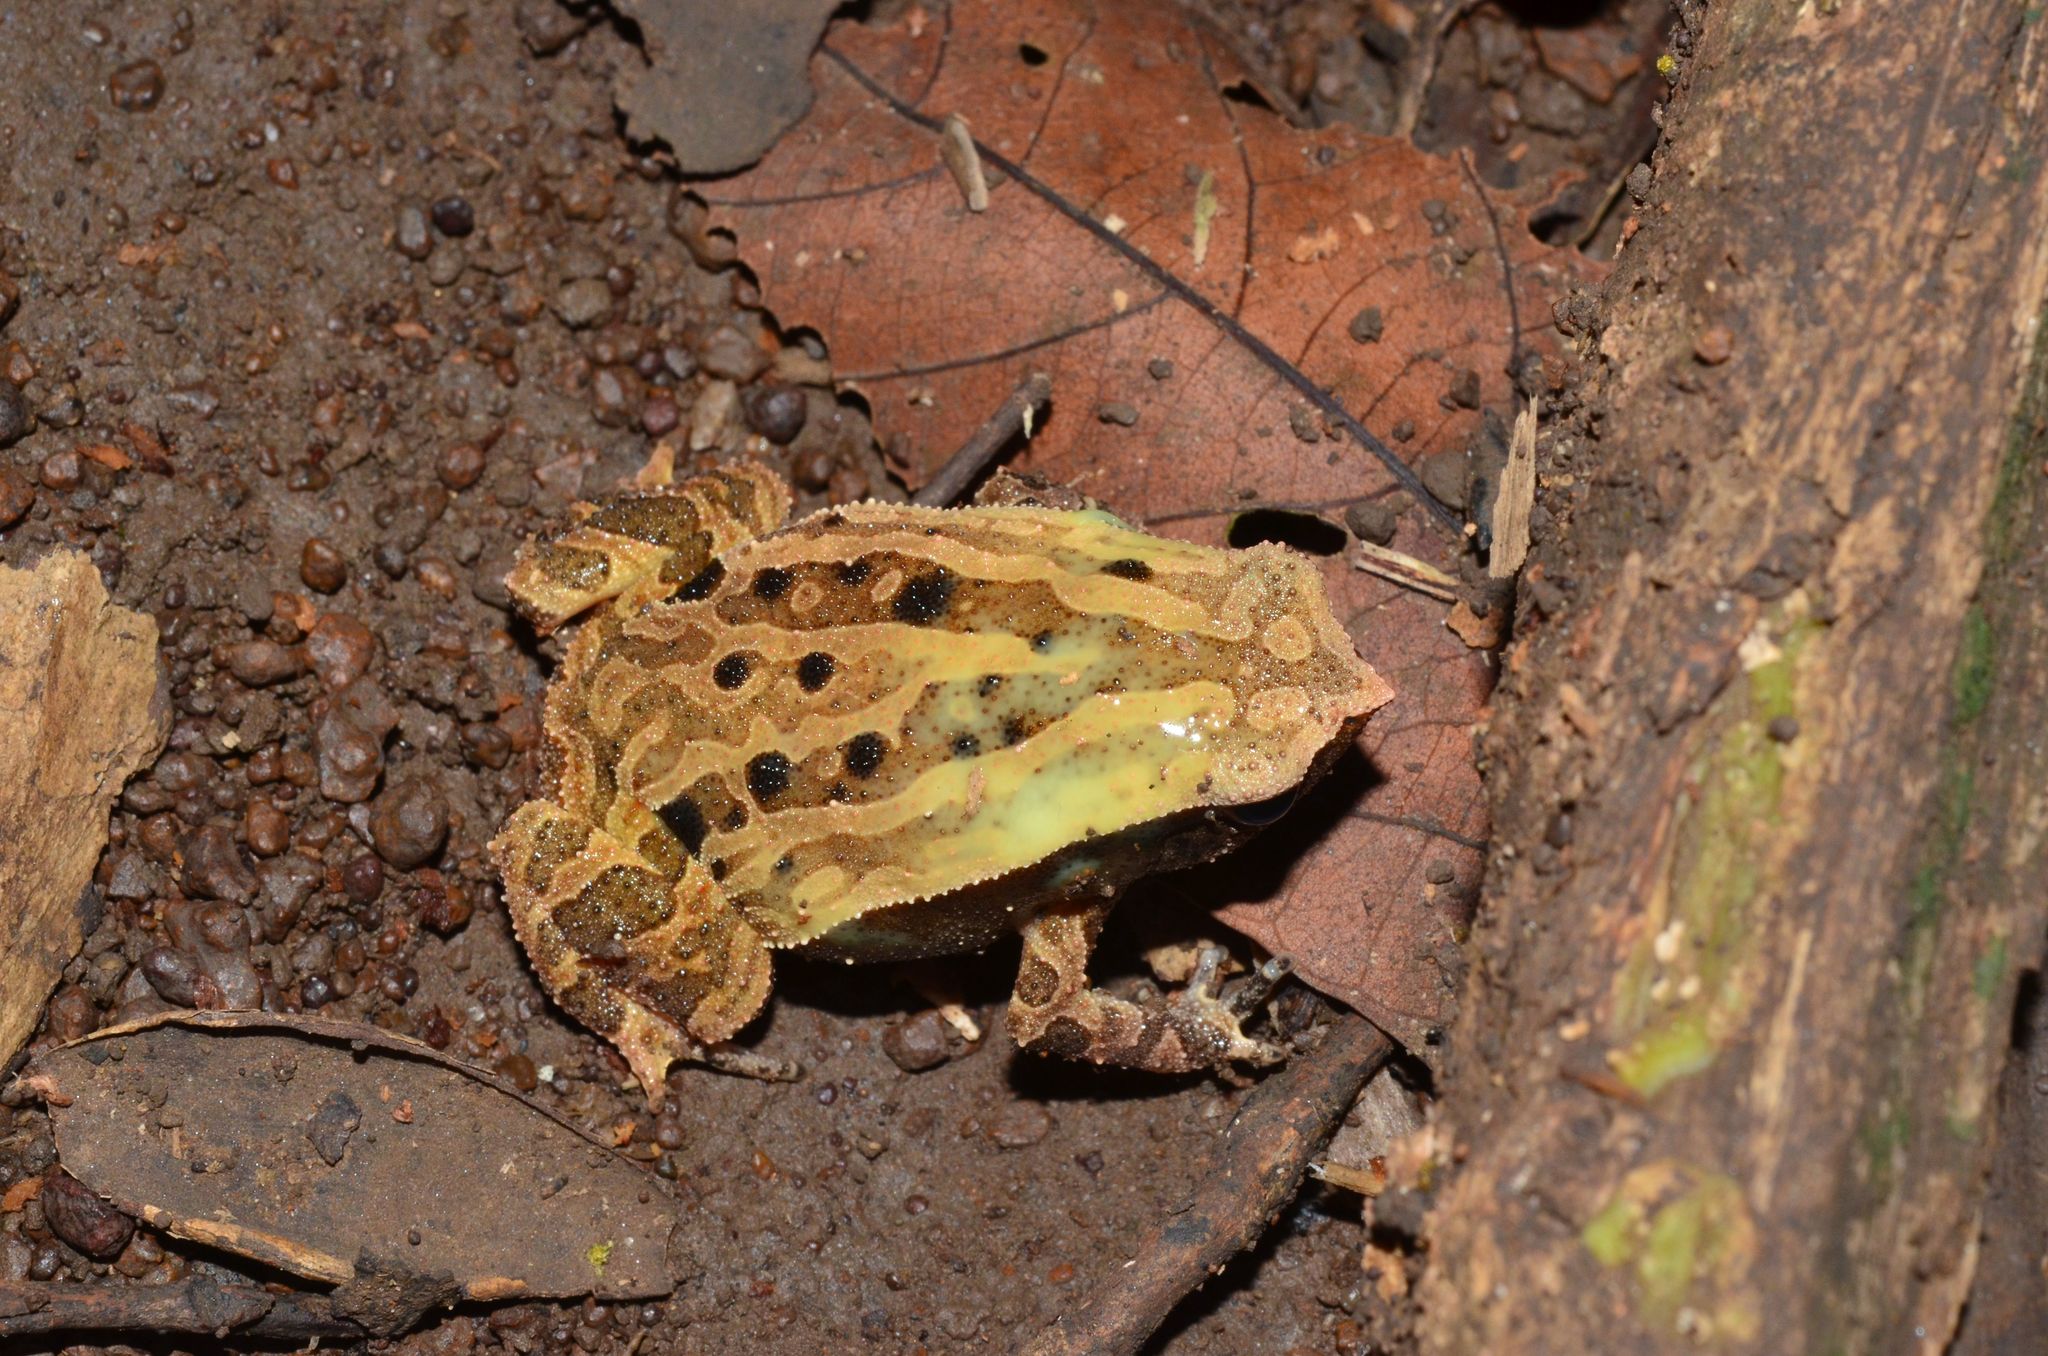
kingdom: Animalia
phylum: Chordata
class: Amphibia
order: Anura
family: Microhylidae
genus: Kalophrynus
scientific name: Kalophrynus interlineatus
